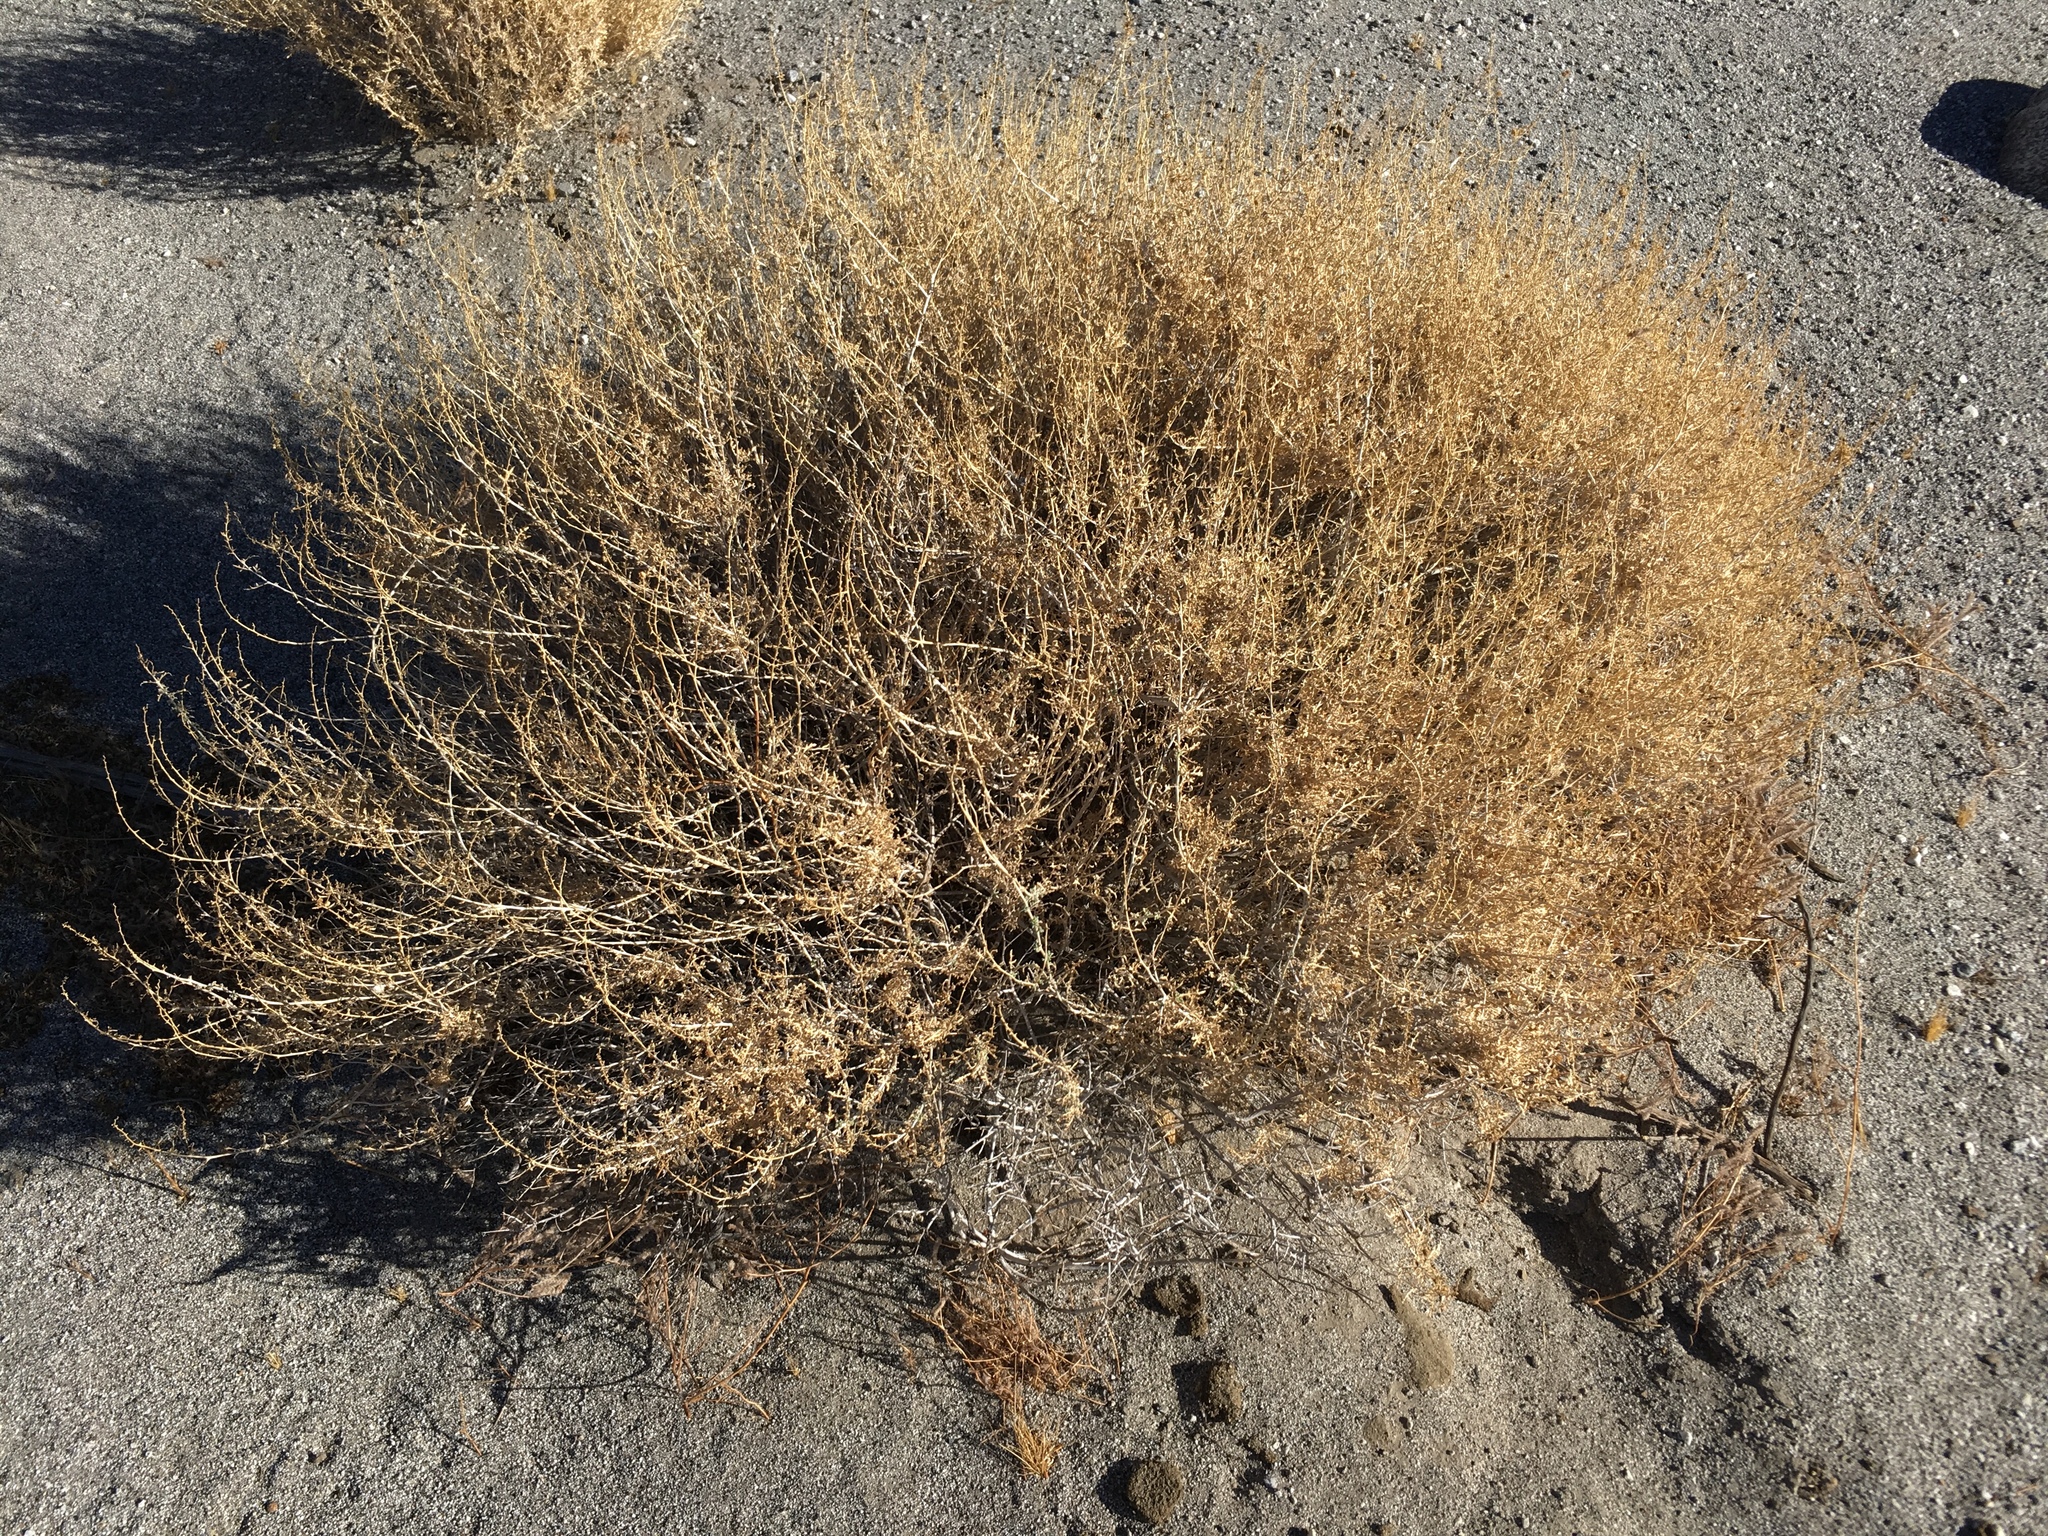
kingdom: Plantae
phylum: Tracheophyta
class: Magnoliopsida
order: Asterales
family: Asteraceae
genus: Ambrosia
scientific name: Ambrosia dumosa
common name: Bur-sage
